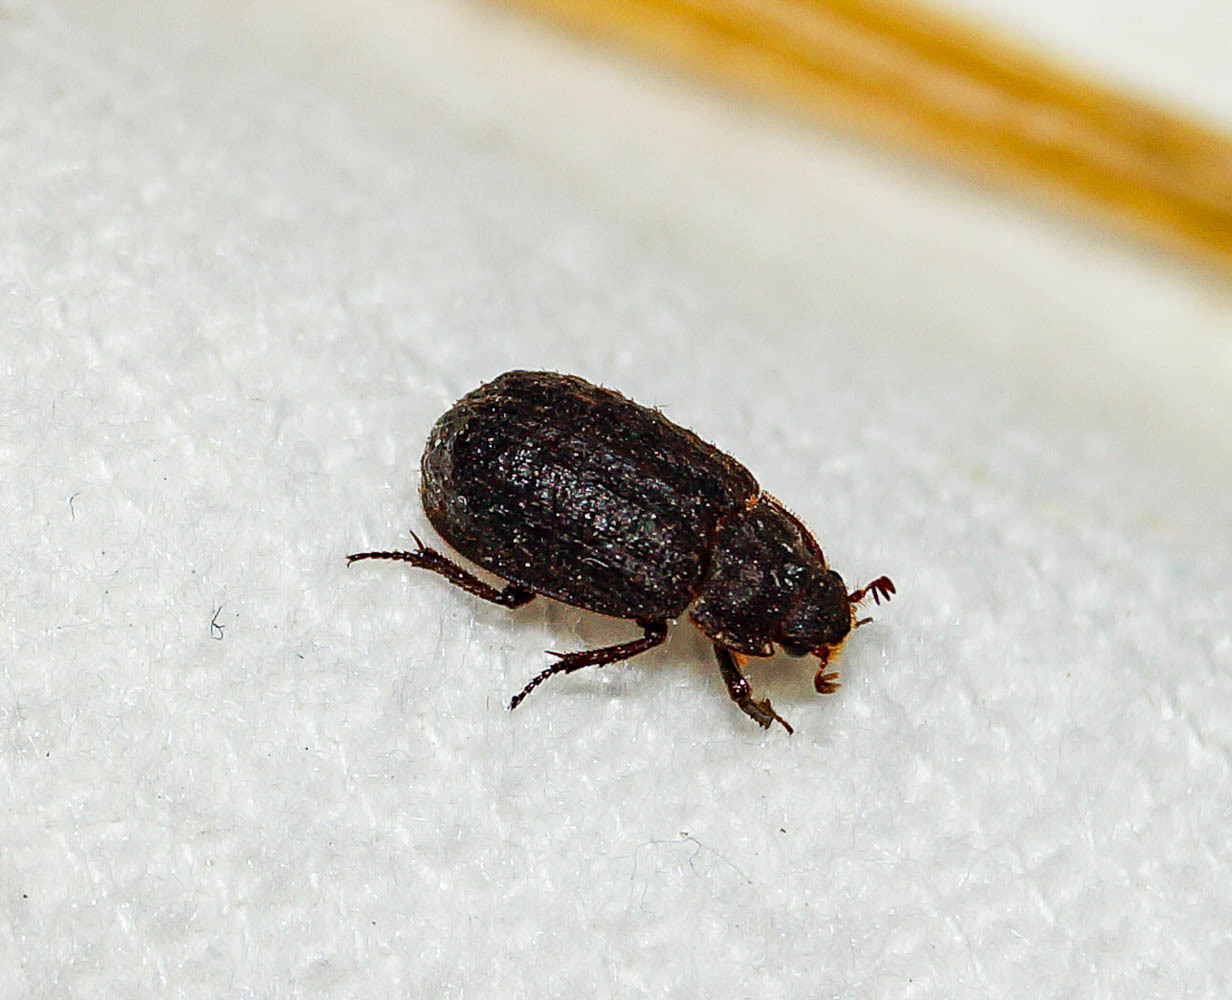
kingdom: Animalia
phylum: Arthropoda
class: Insecta
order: Coleoptera
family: Trogidae
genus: Trox
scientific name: Trox scaber
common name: Hide beetle
